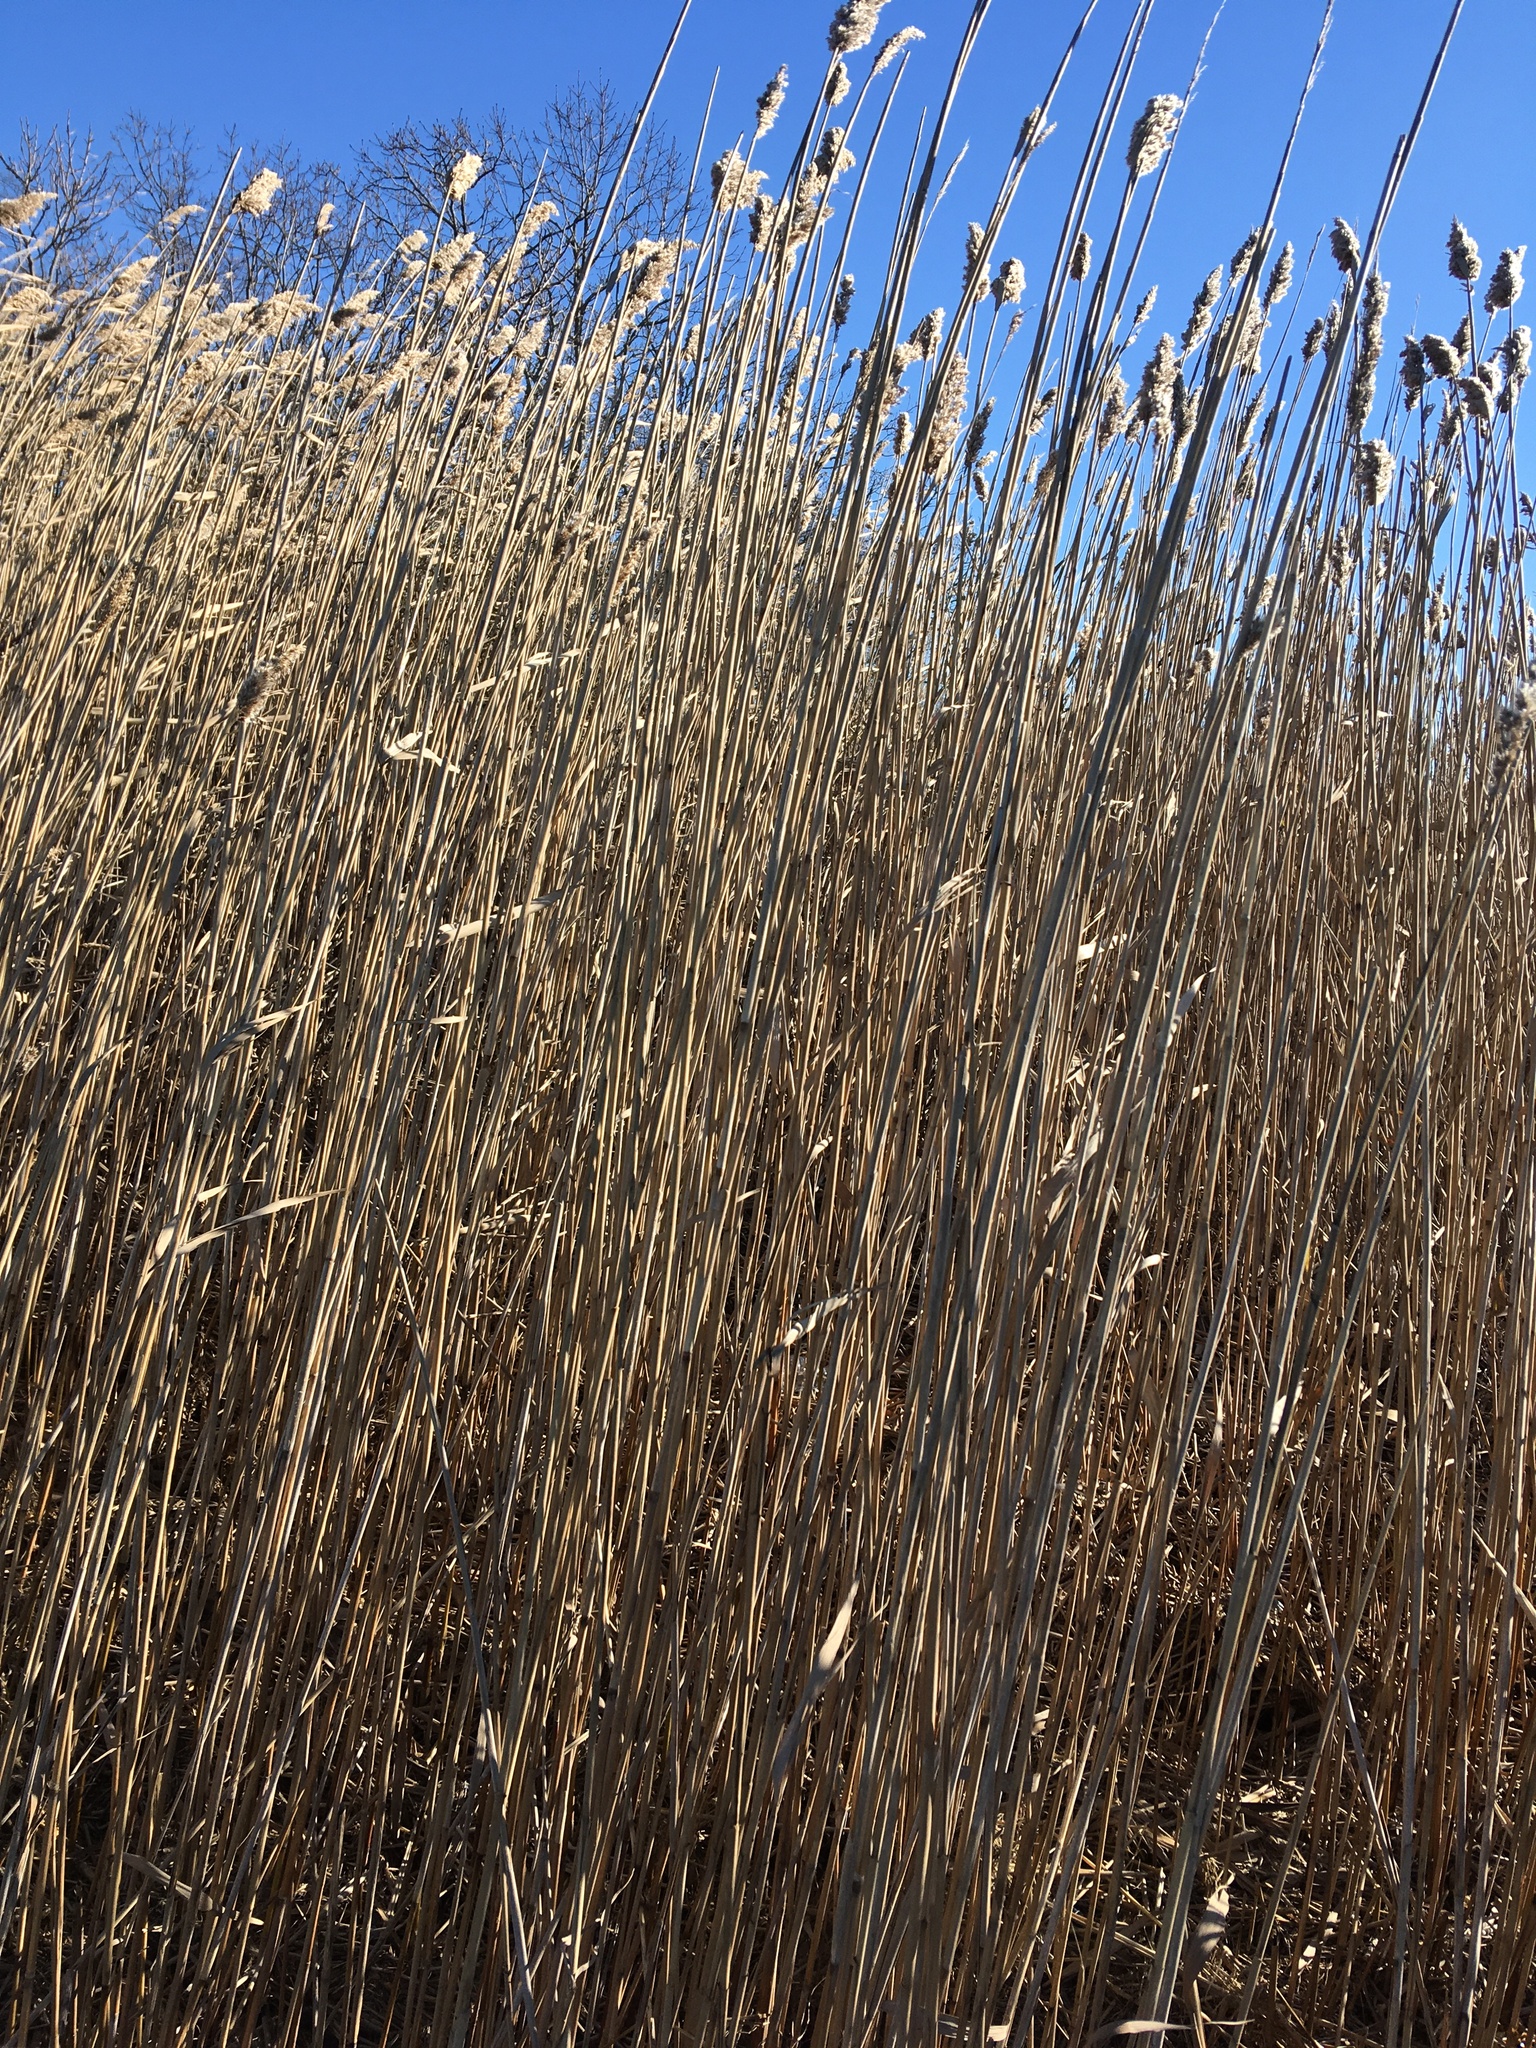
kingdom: Plantae
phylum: Tracheophyta
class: Liliopsida
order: Poales
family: Poaceae
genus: Phragmites
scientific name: Phragmites australis
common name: Common reed
